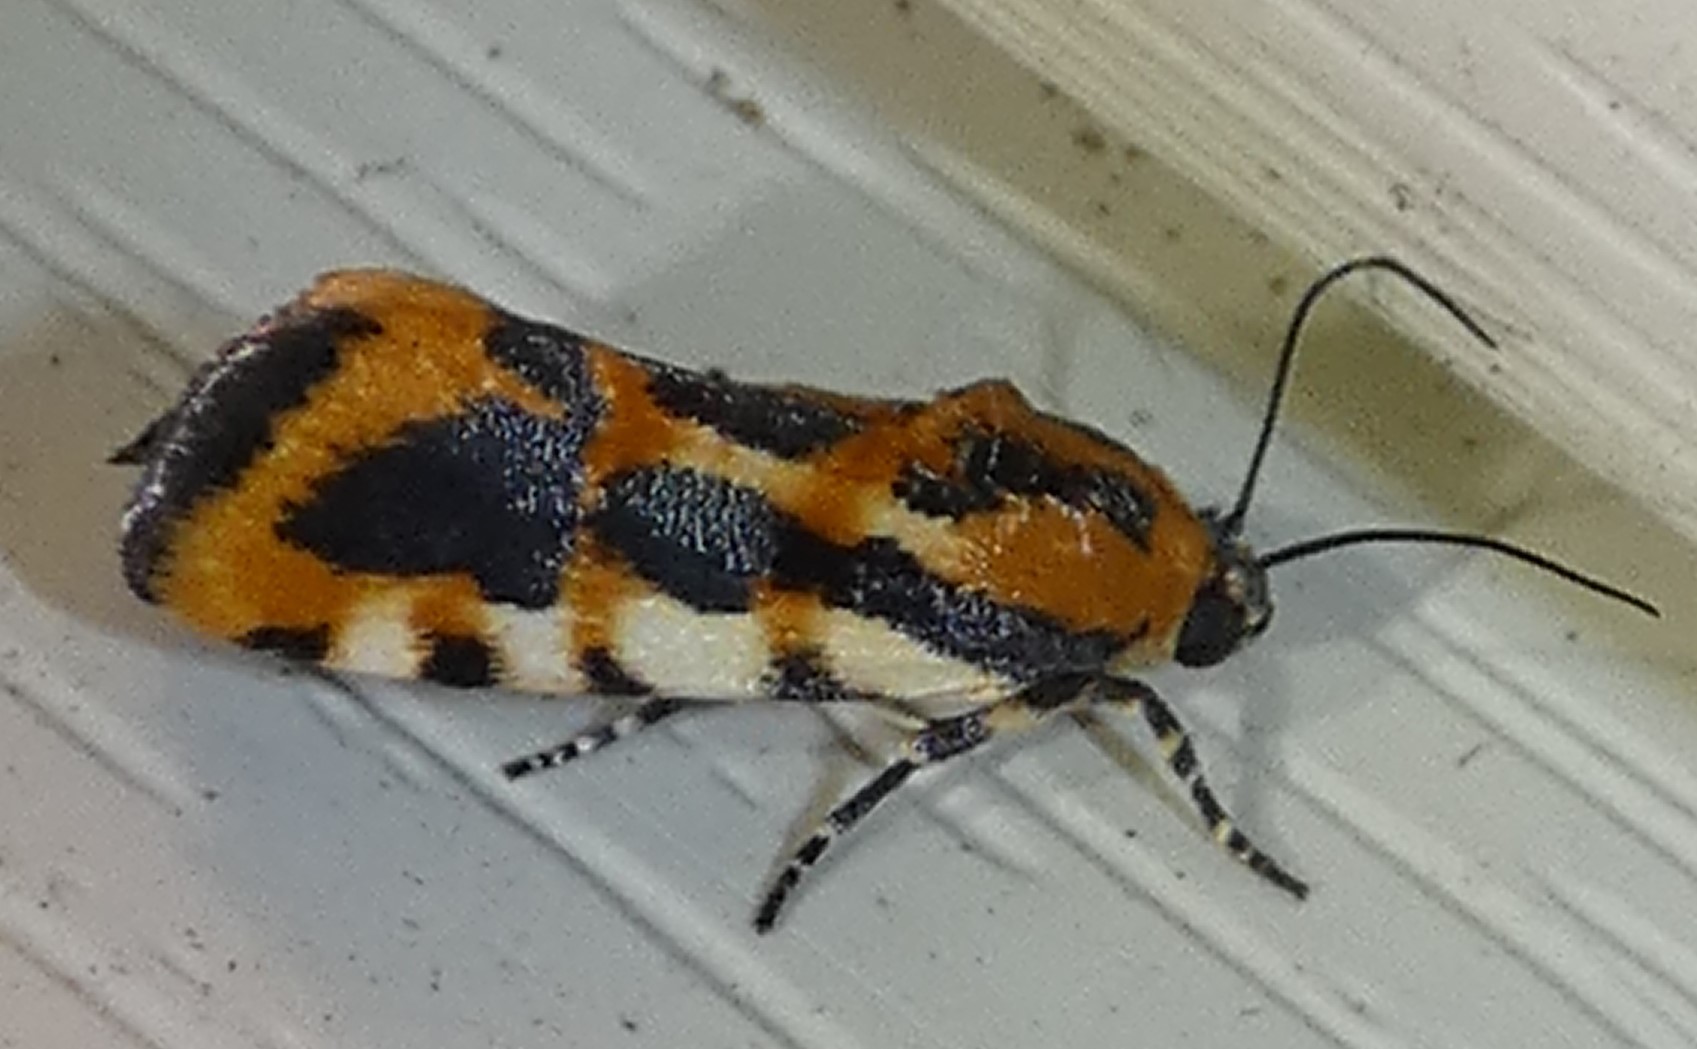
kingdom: Animalia
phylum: Arthropoda
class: Insecta
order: Lepidoptera
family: Noctuidae
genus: Acontia
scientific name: Acontia leo
